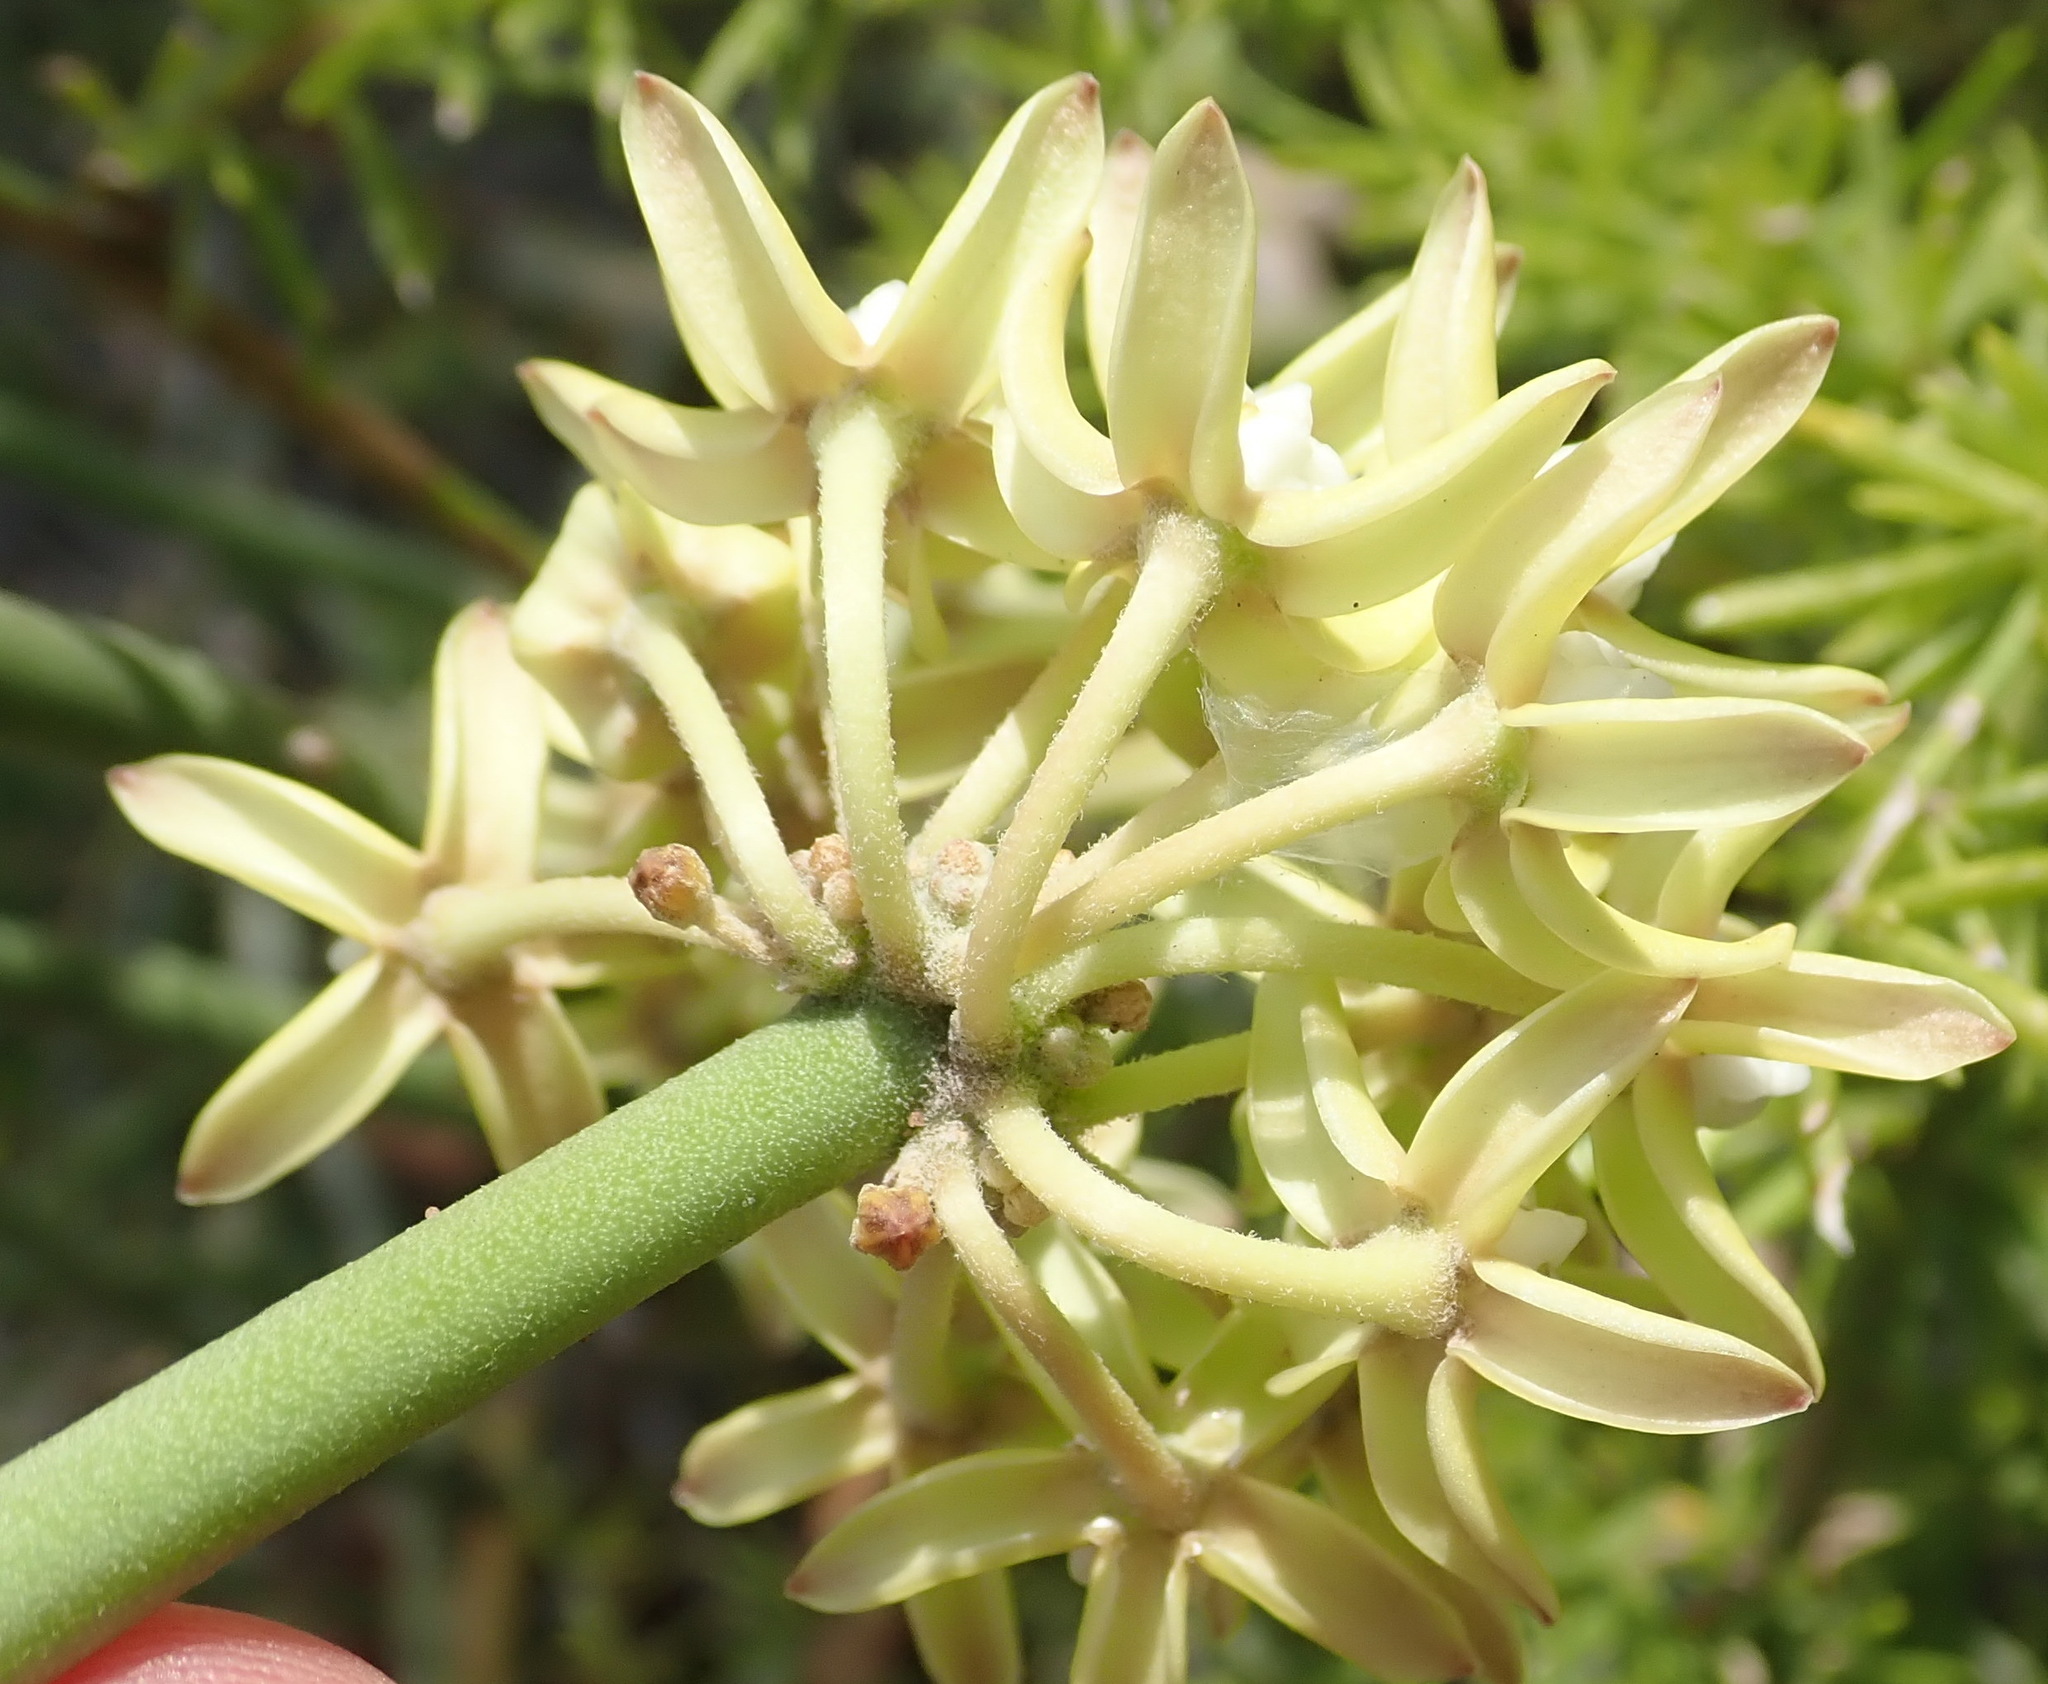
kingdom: Plantae
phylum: Tracheophyta
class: Magnoliopsida
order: Gentianales
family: Apocynaceae
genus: Cynanchum
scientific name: Cynanchum viminale
